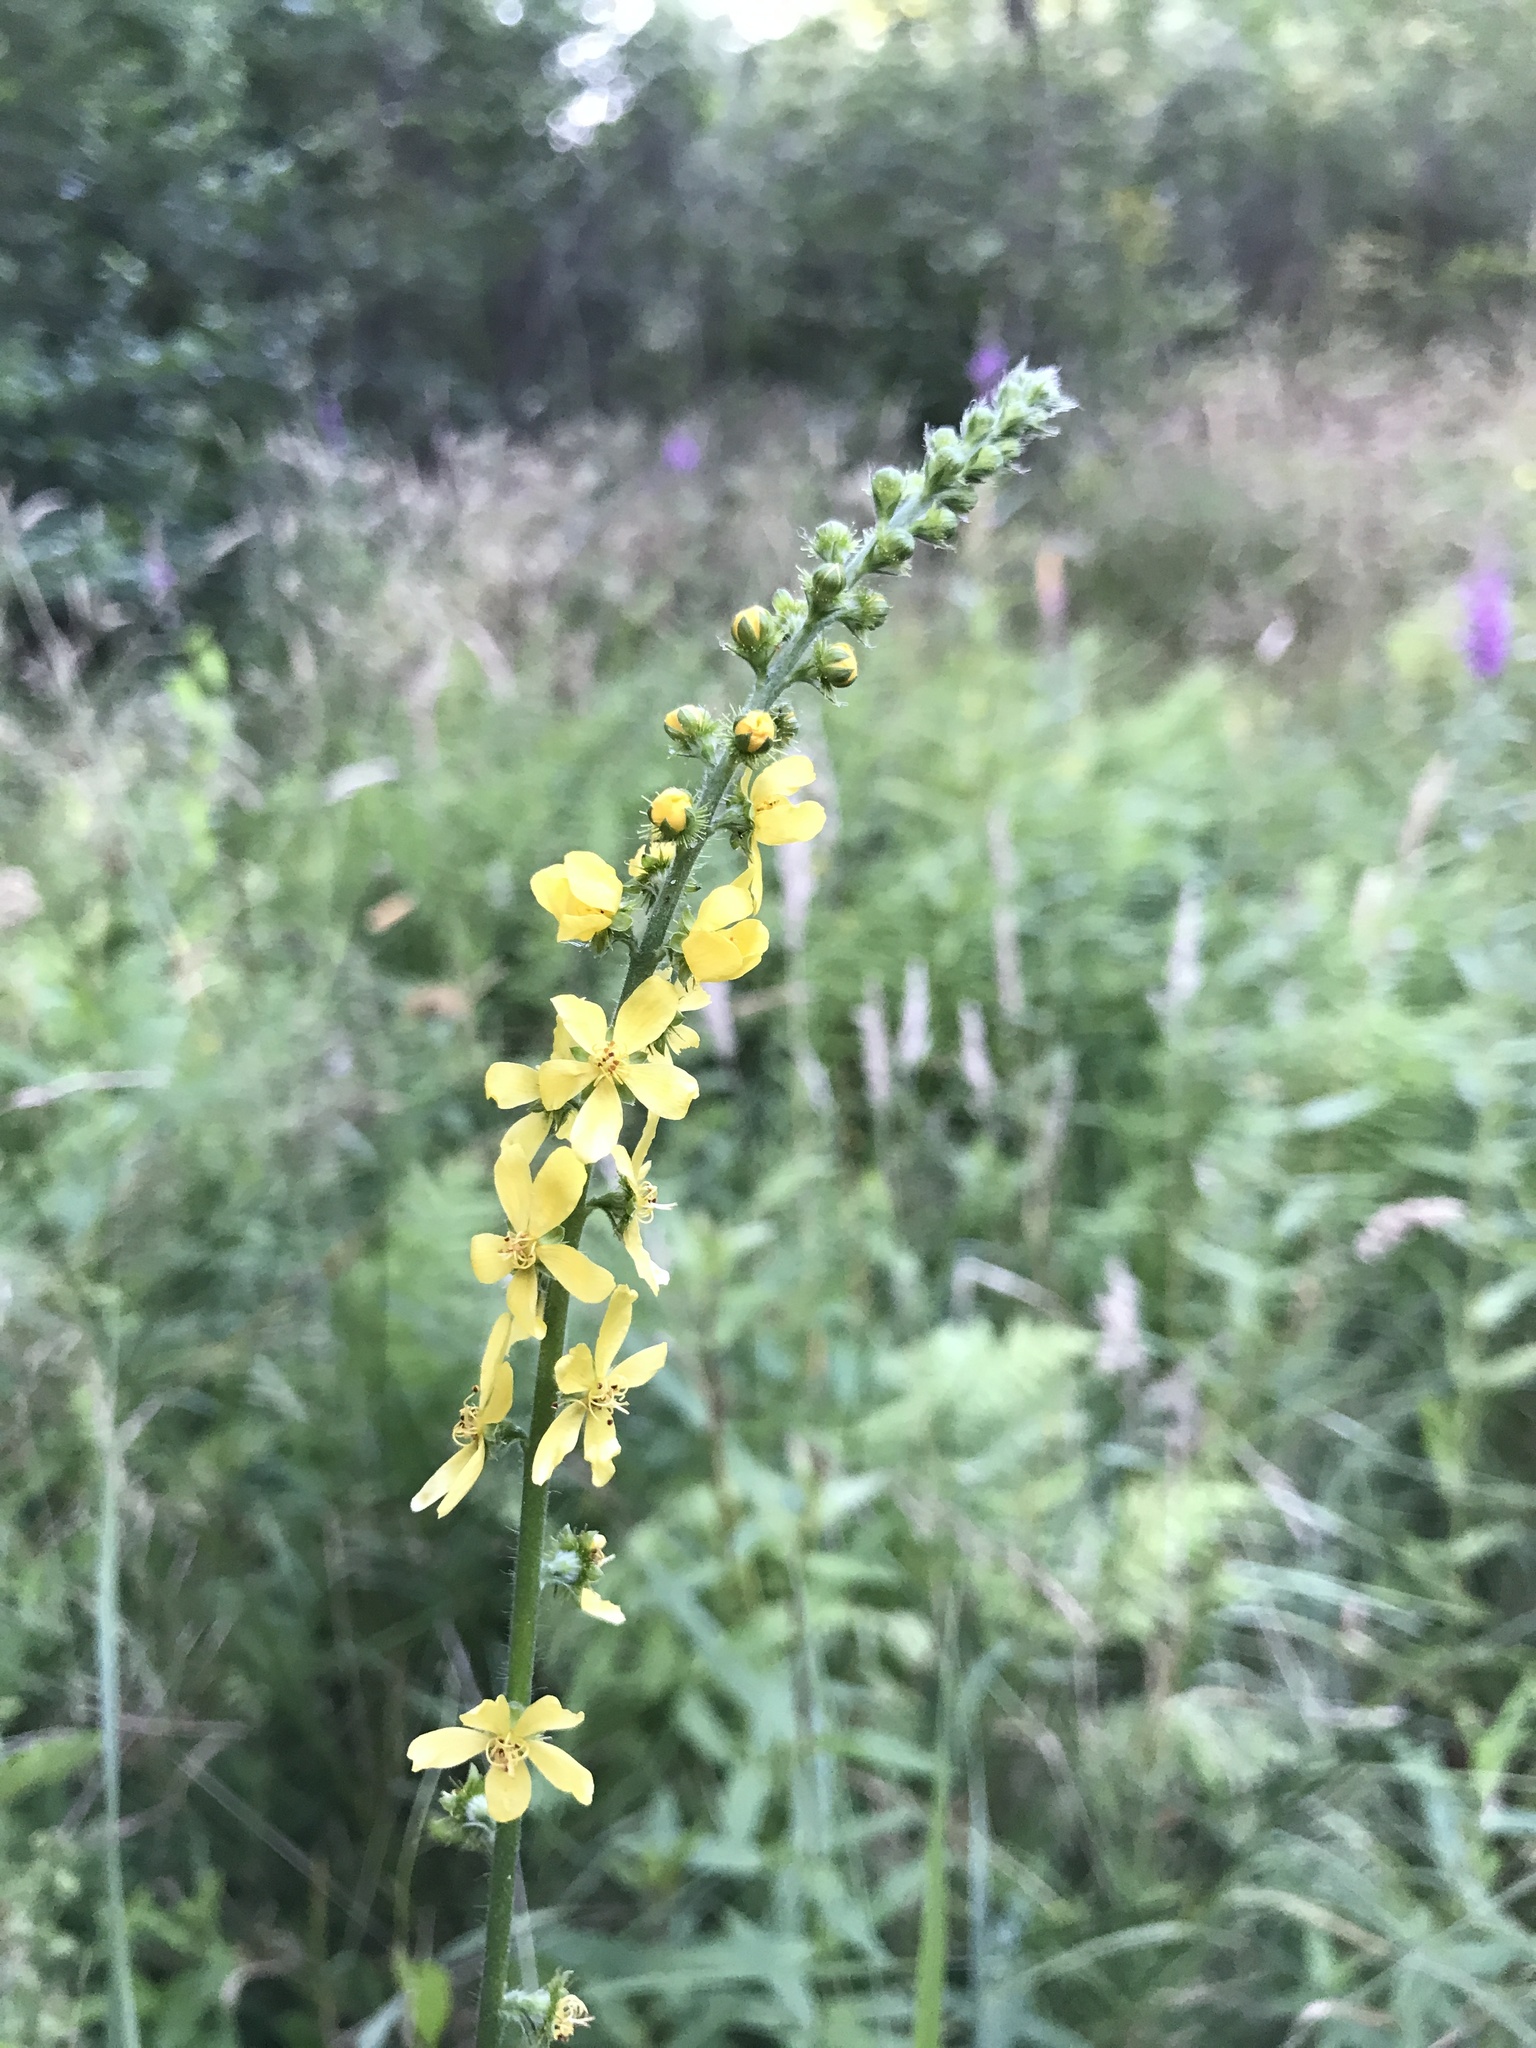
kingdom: Plantae
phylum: Tracheophyta
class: Magnoliopsida
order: Rosales
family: Rosaceae
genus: Agrimonia
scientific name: Agrimonia eupatoria
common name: Agrimony
